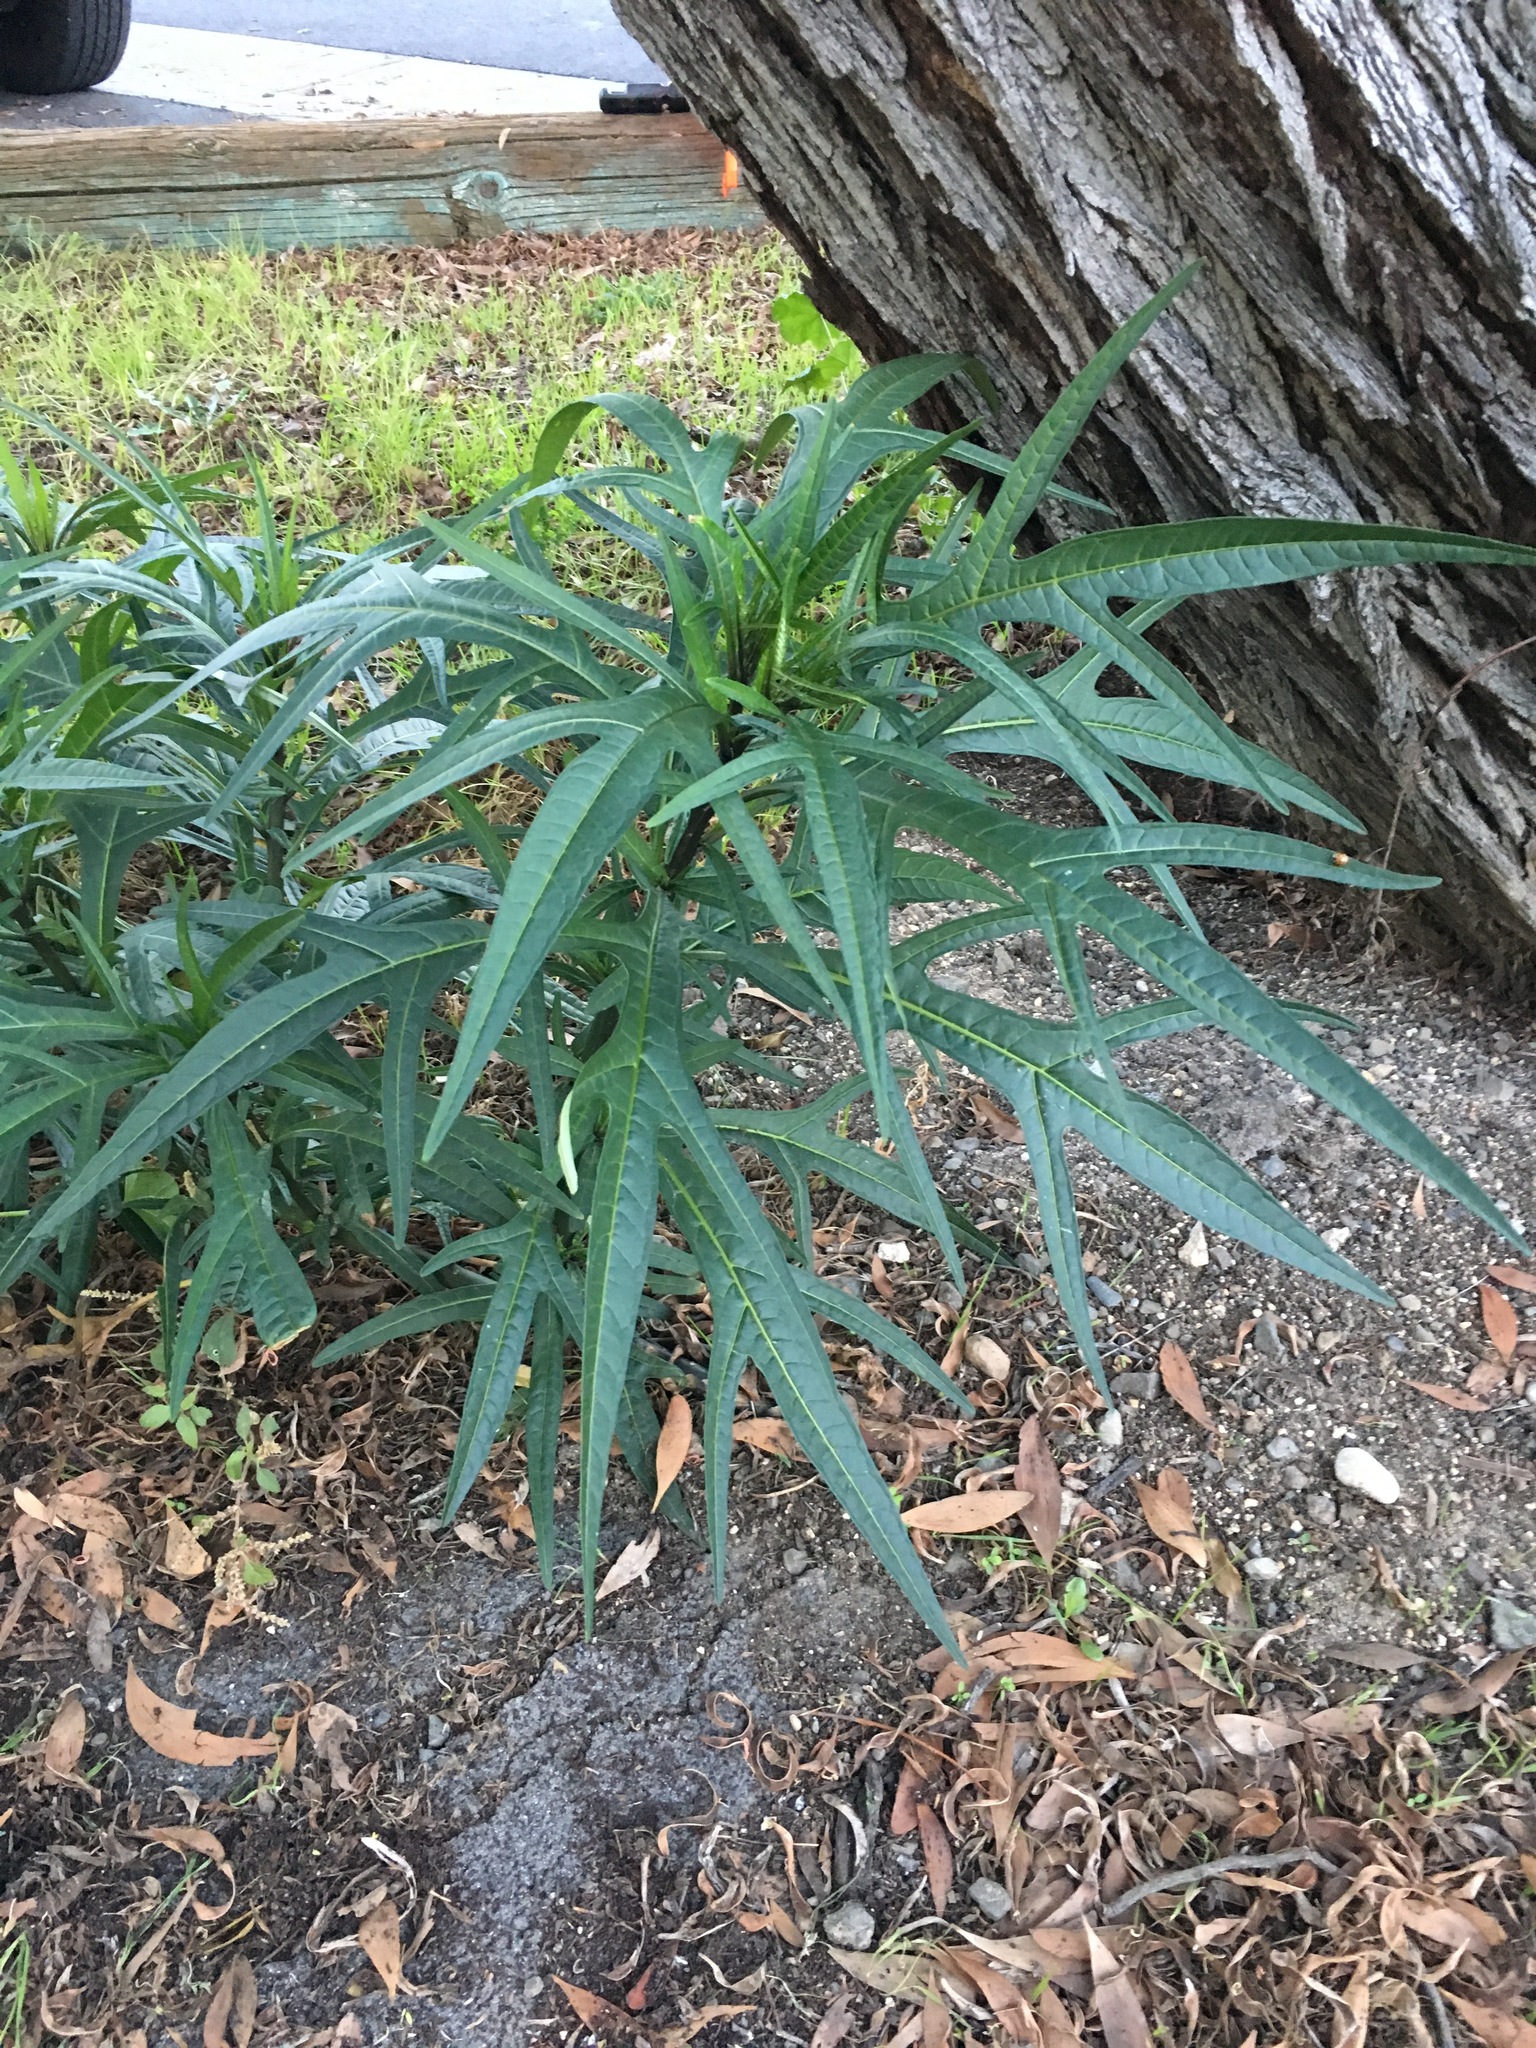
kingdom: Plantae
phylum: Tracheophyta
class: Magnoliopsida
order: Solanales
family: Solanaceae
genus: Solanum
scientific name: Solanum laciniatum
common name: Kangaroo-apple
